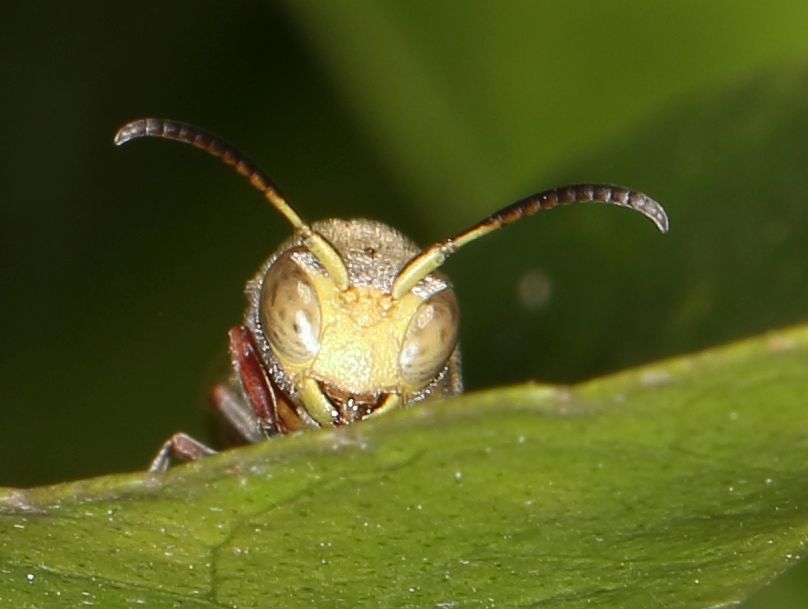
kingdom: Animalia
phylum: Arthropoda
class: Insecta
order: Hymenoptera
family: Vespidae
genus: Ropalidia
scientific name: Ropalidia tomentosa
